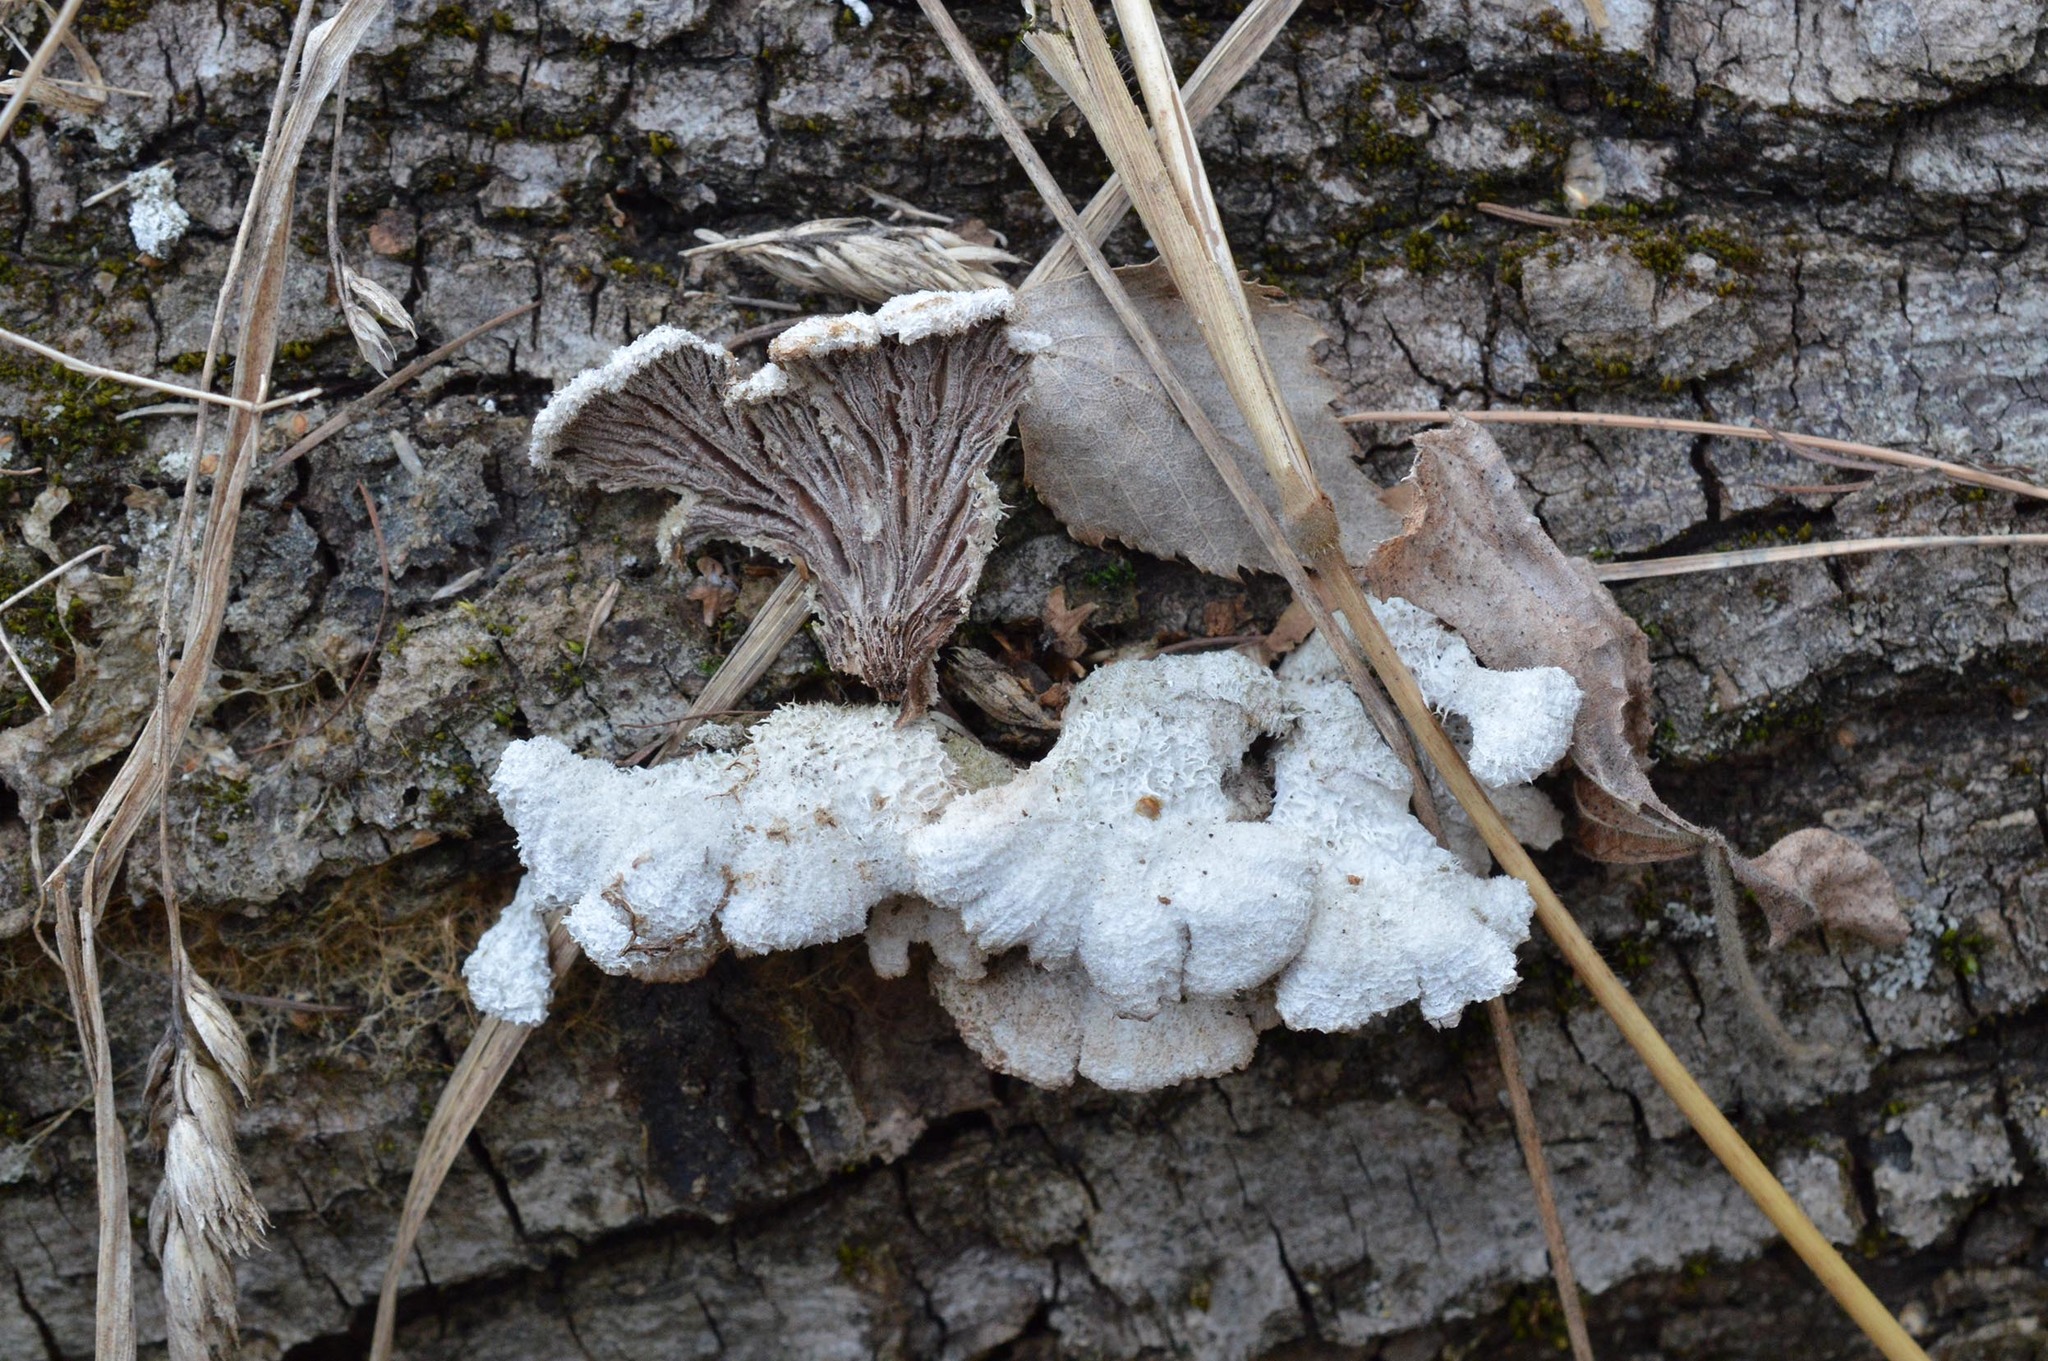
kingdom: Fungi
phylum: Basidiomycota
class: Agaricomycetes
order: Agaricales
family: Schizophyllaceae
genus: Schizophyllum
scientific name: Schizophyllum commune
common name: Common porecrust
